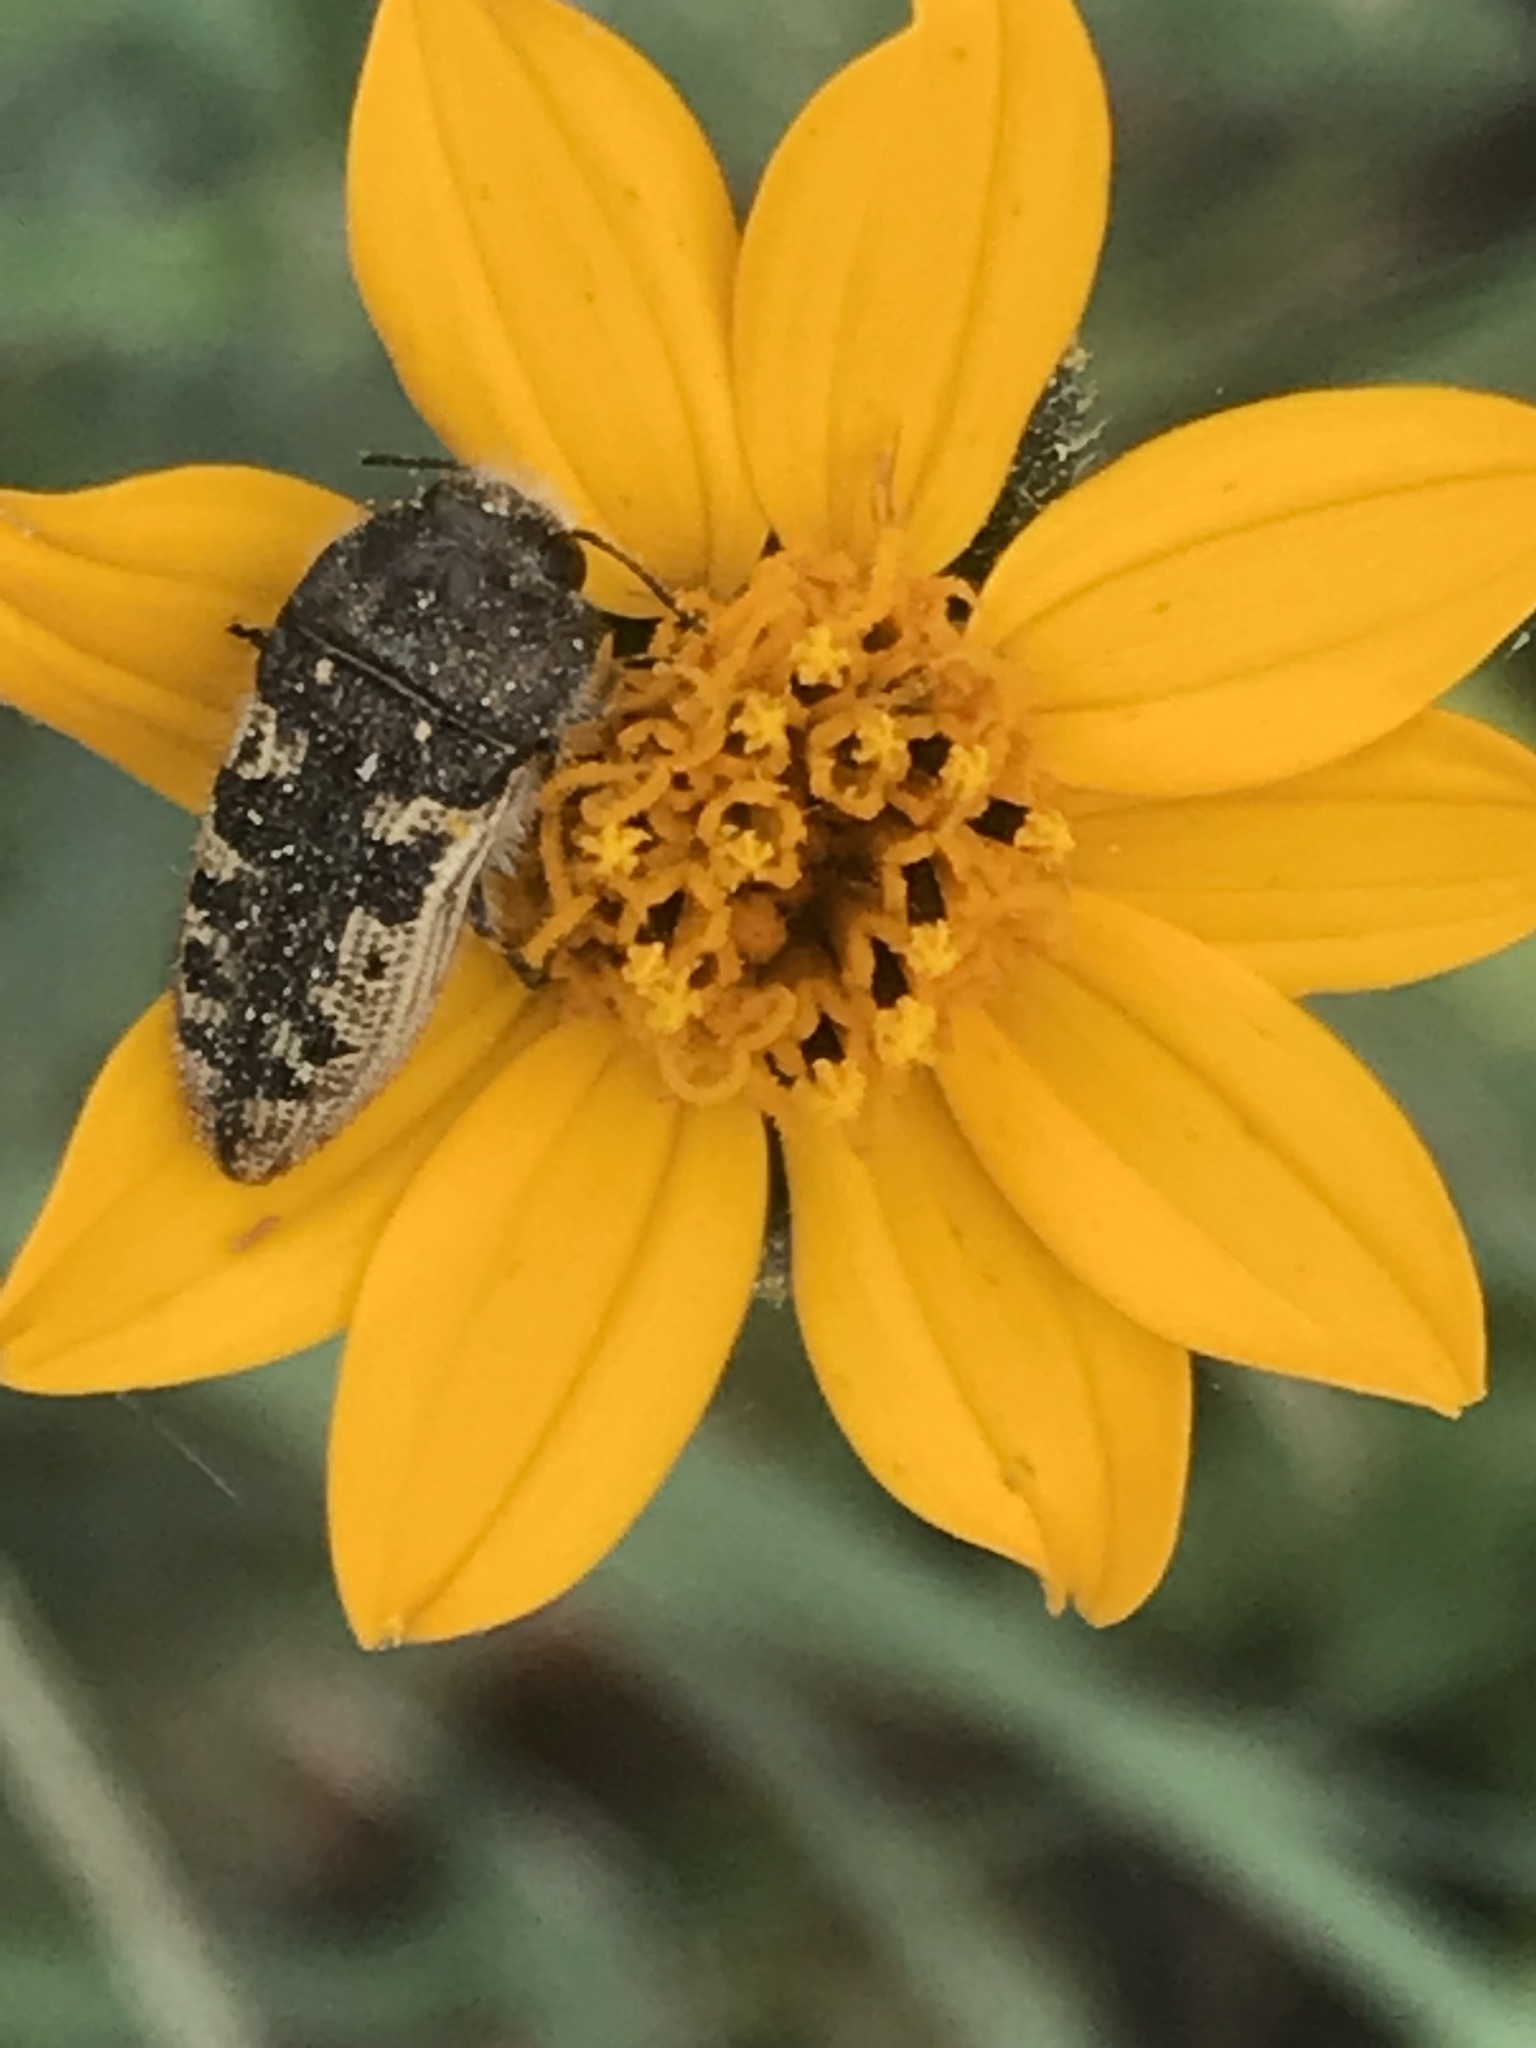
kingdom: Plantae
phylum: Tracheophyta
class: Magnoliopsida
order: Asterales
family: Asteraceae
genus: Wedelia
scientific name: Wedelia acapulcensis
